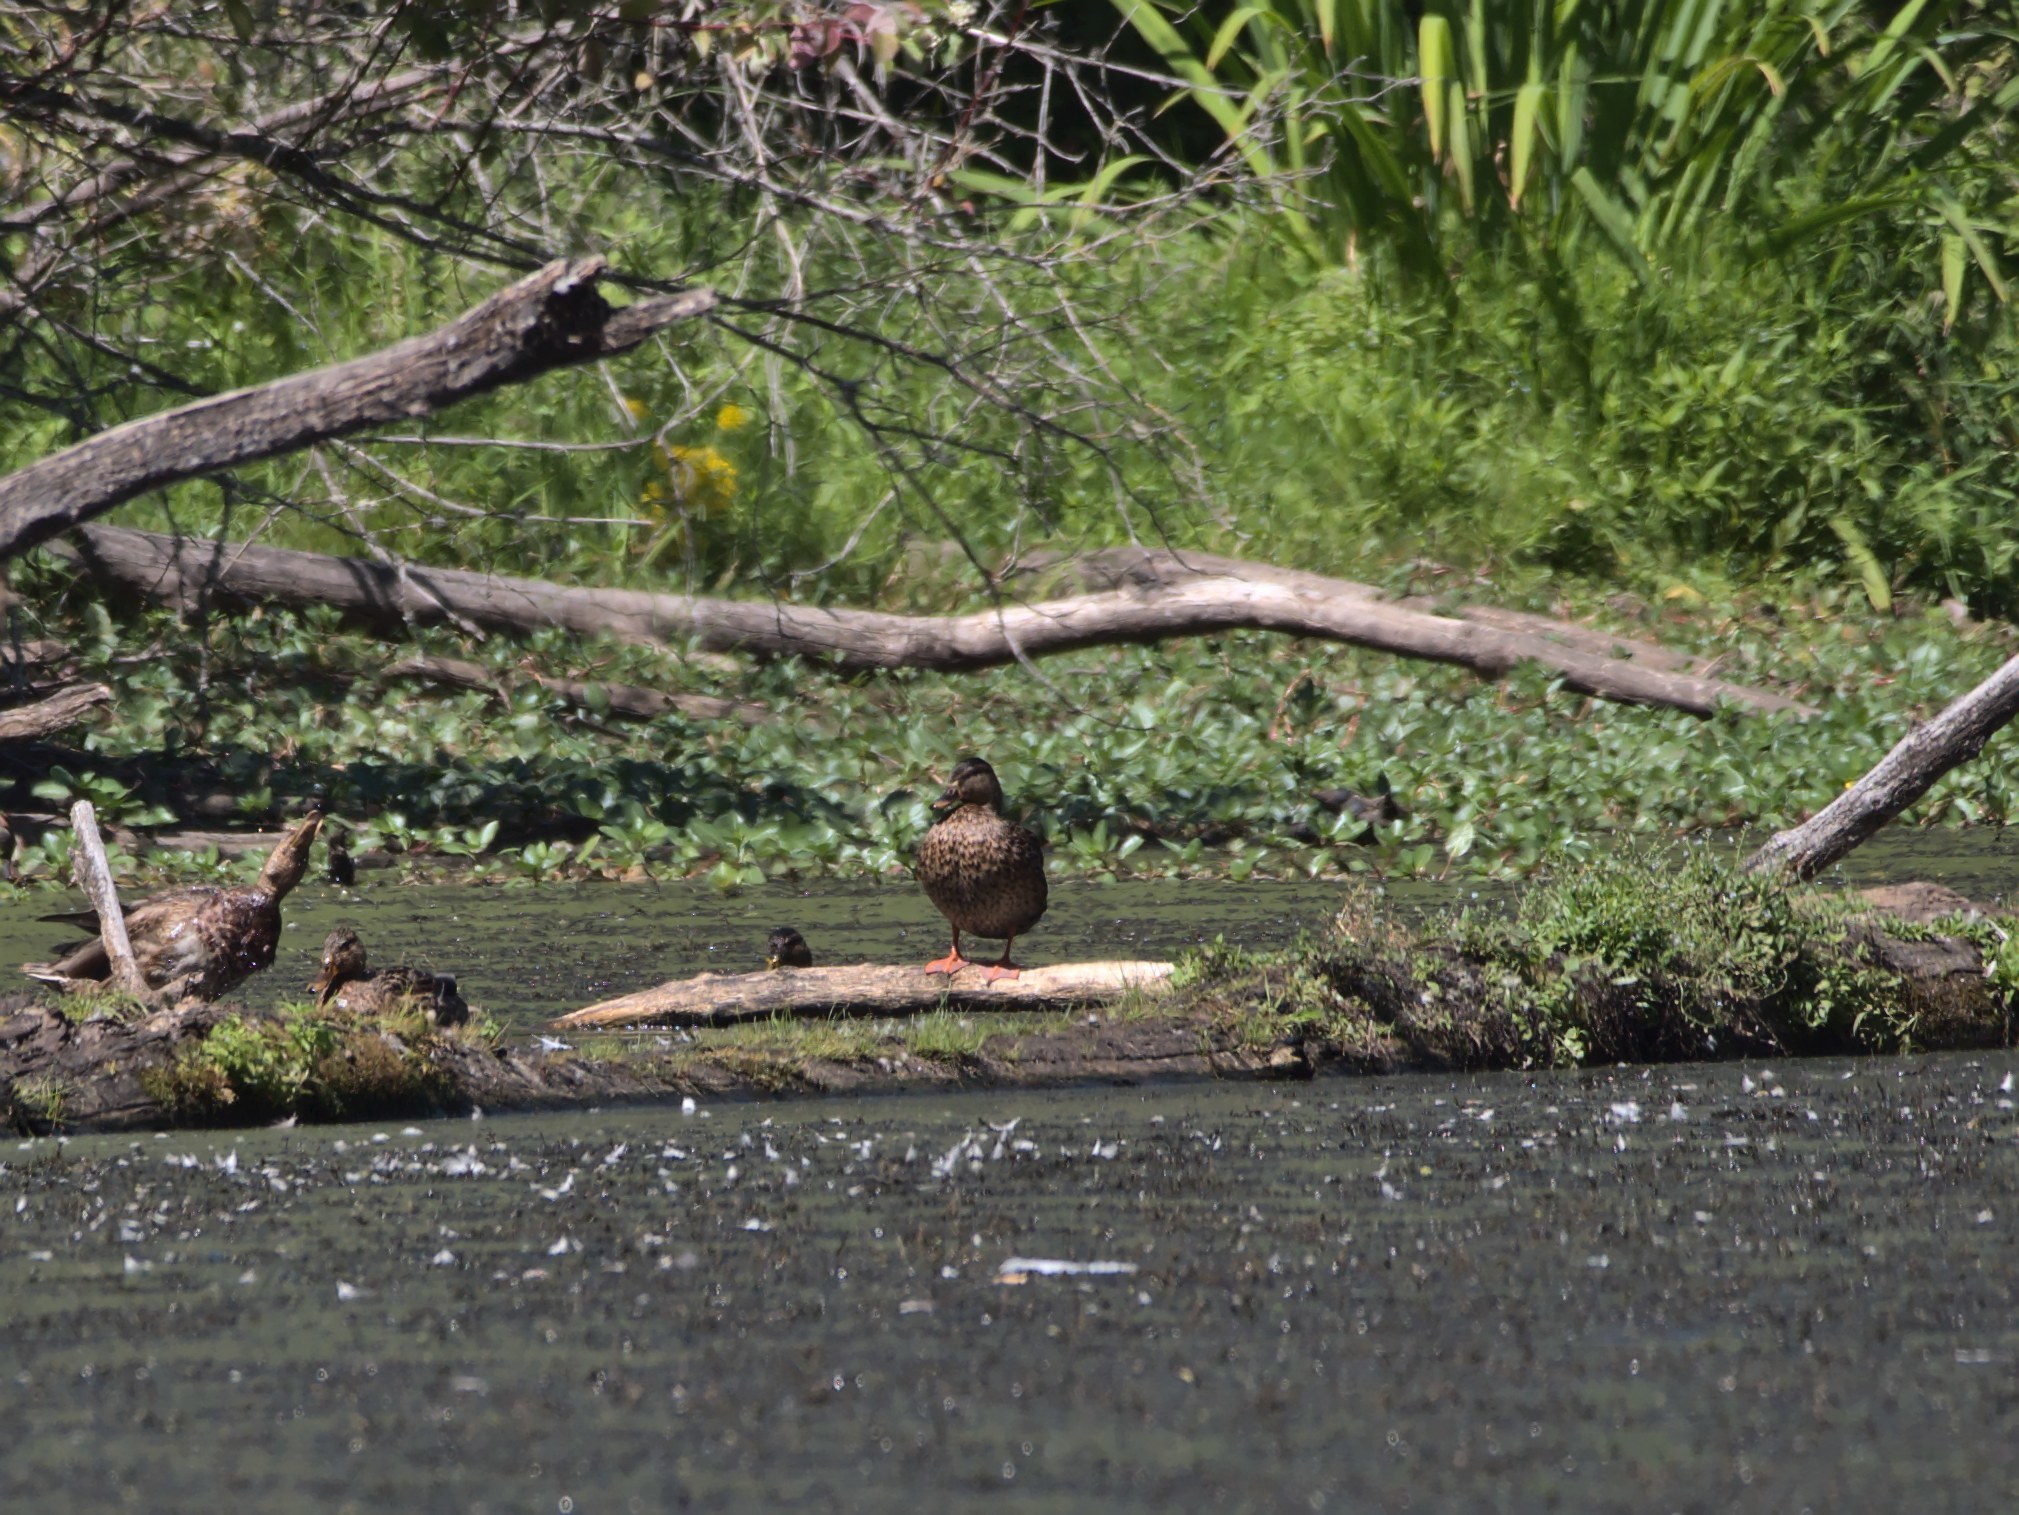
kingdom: Animalia
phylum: Chordata
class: Aves
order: Anseriformes
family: Anatidae
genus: Anas
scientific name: Anas platyrhynchos
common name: Mallard
